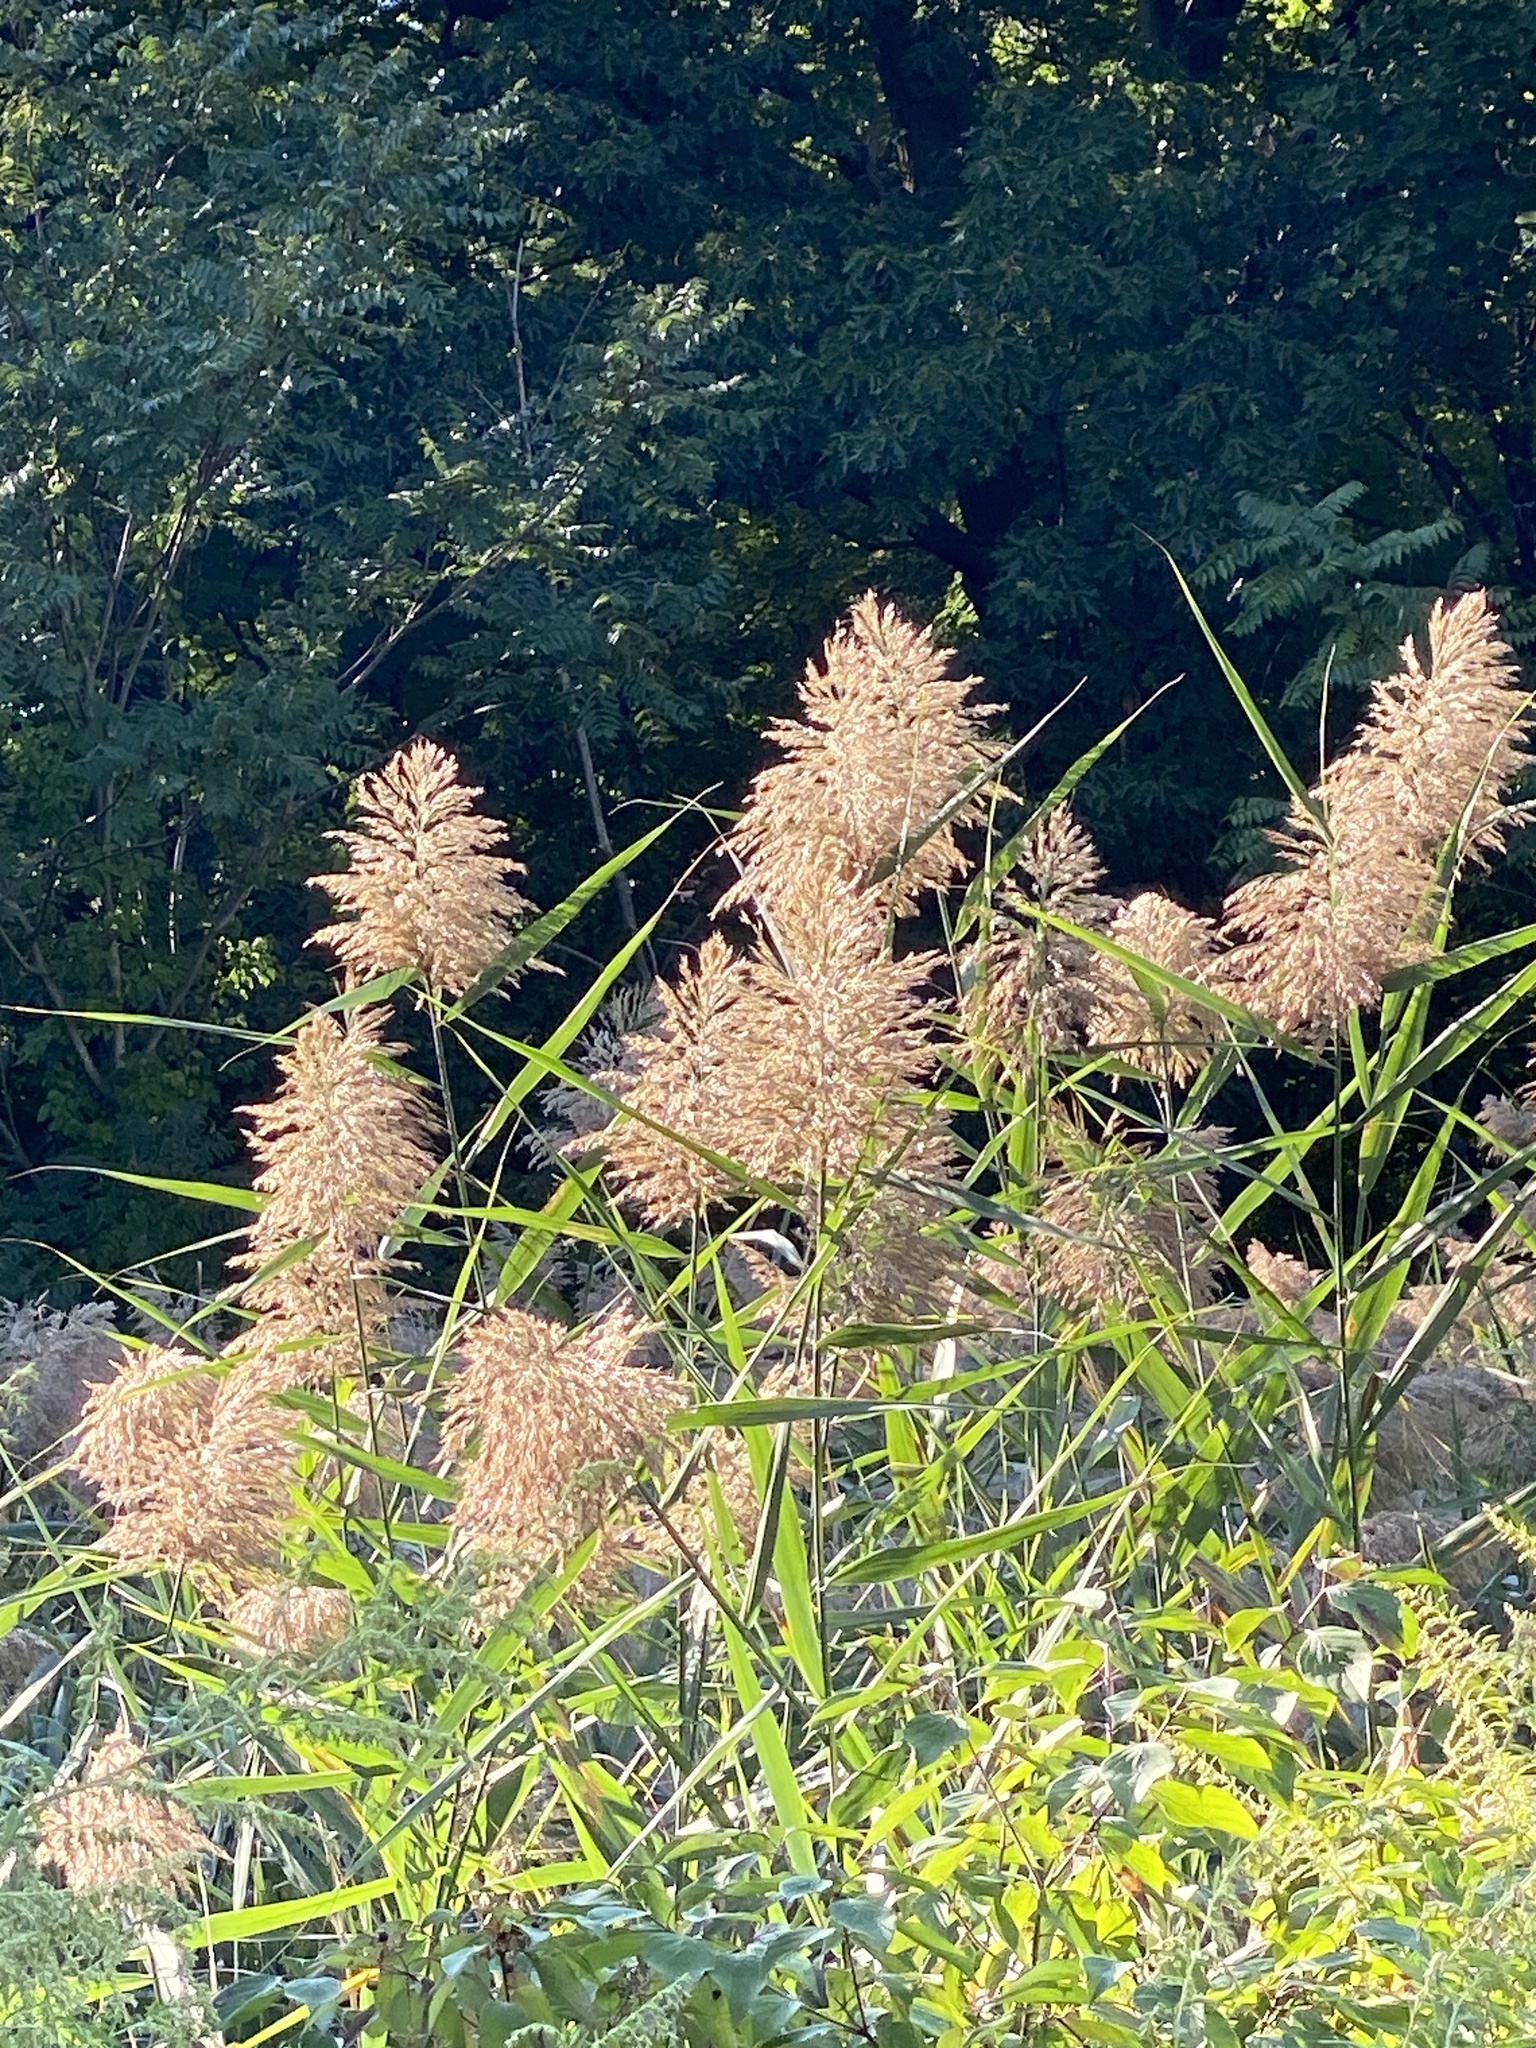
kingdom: Plantae
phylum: Tracheophyta
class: Liliopsida
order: Poales
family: Poaceae
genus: Phragmites
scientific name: Phragmites australis
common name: Common reed
